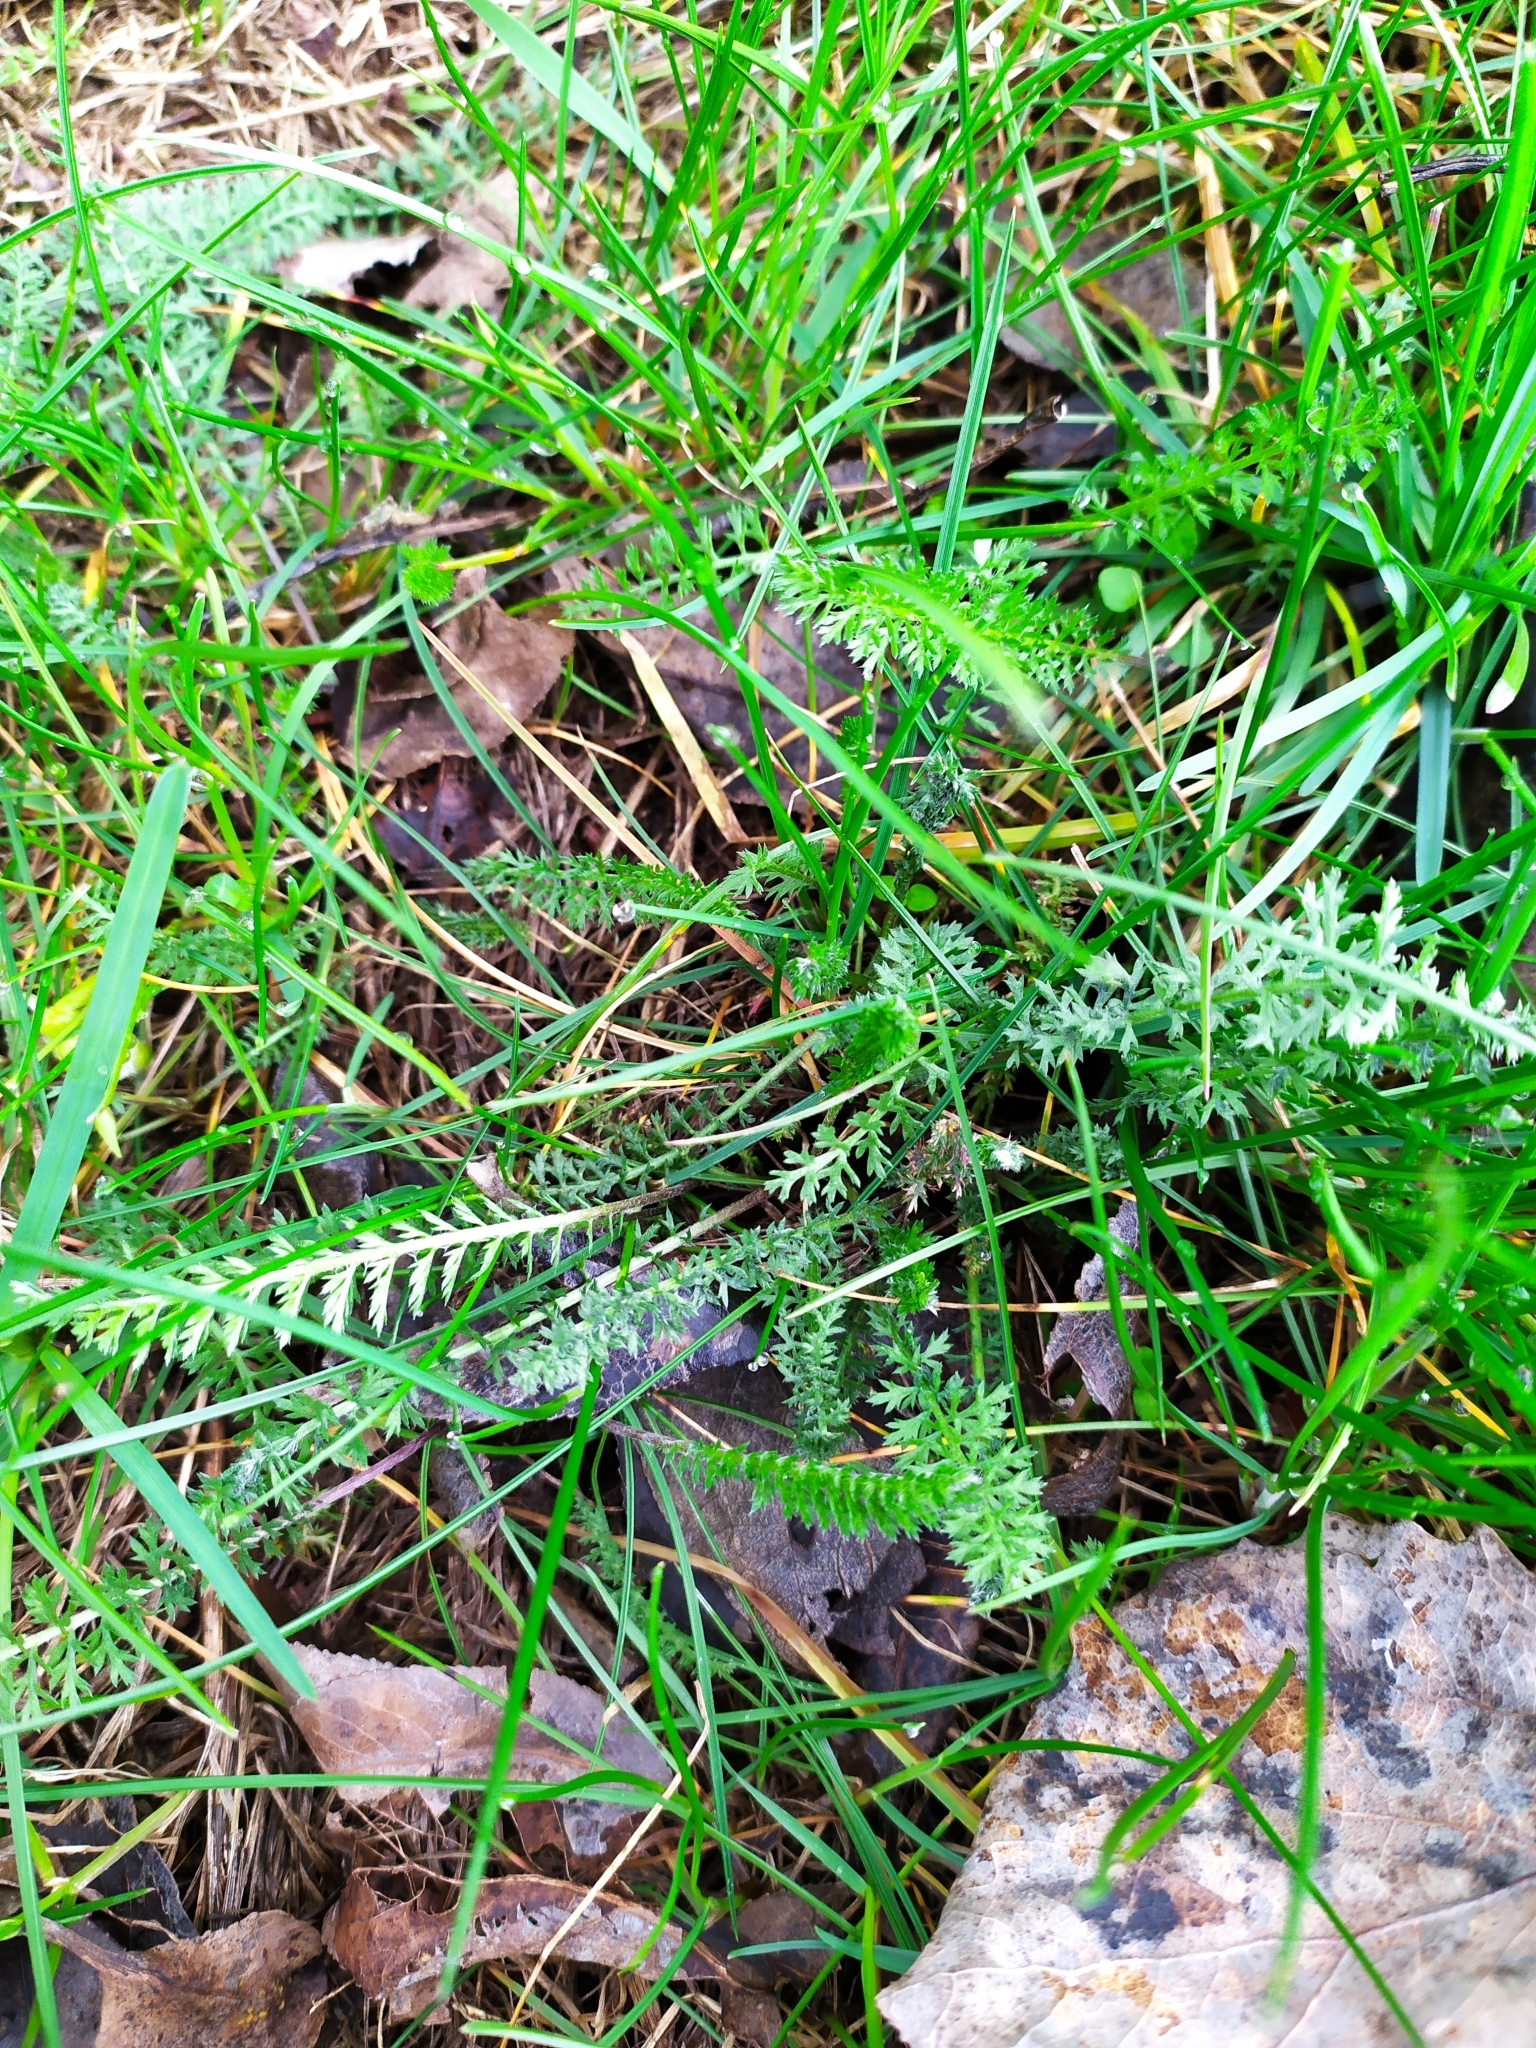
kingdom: Plantae
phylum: Tracheophyta
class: Magnoliopsida
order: Asterales
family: Asteraceae
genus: Achillea
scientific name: Achillea millefolium
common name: Yarrow
